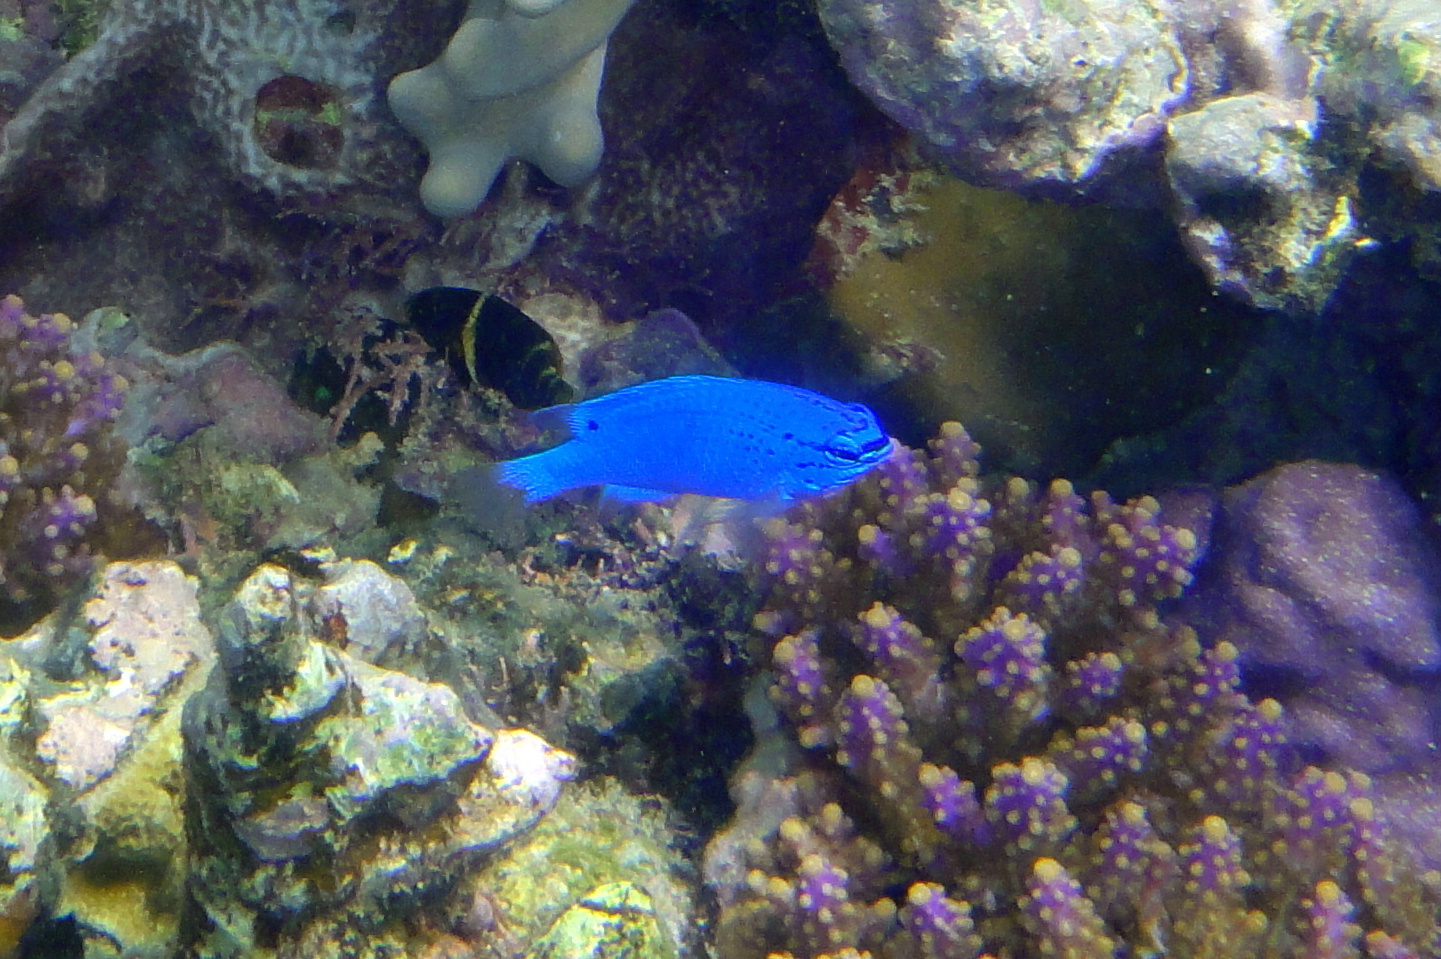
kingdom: Animalia
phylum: Chordata
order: Perciformes
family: Pomacentridae
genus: Chrysiptera
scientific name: Chrysiptera cyanea
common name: Blue devil
